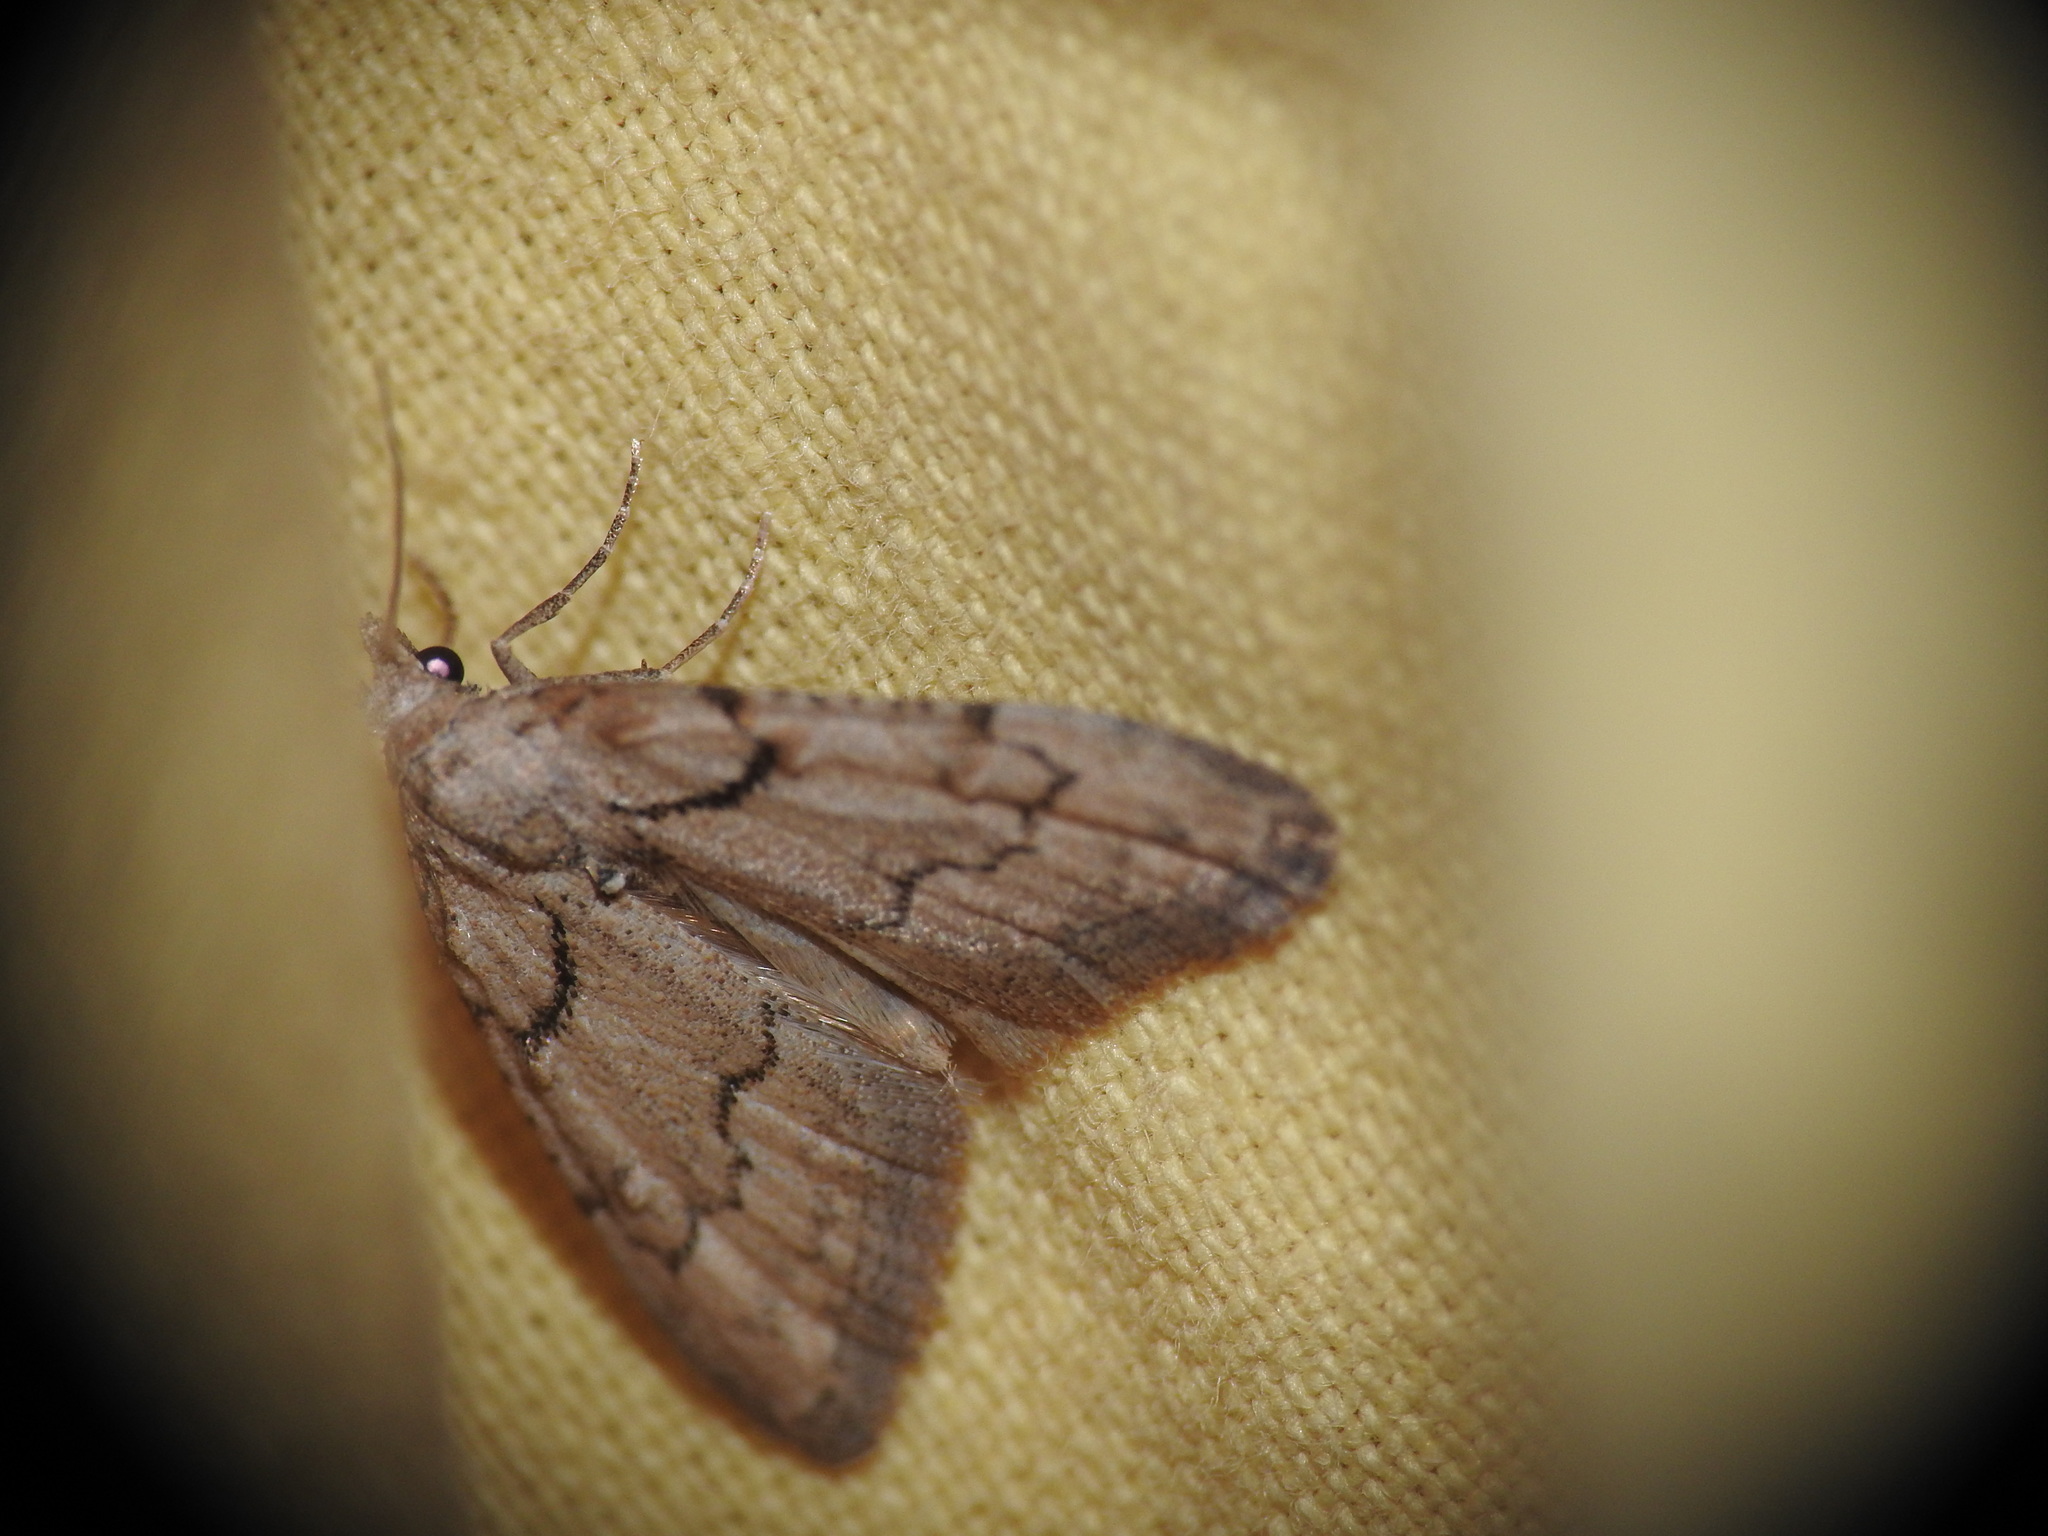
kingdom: Animalia
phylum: Arthropoda
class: Insecta
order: Lepidoptera
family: Nolidae
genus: Nola
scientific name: Nola thymula
